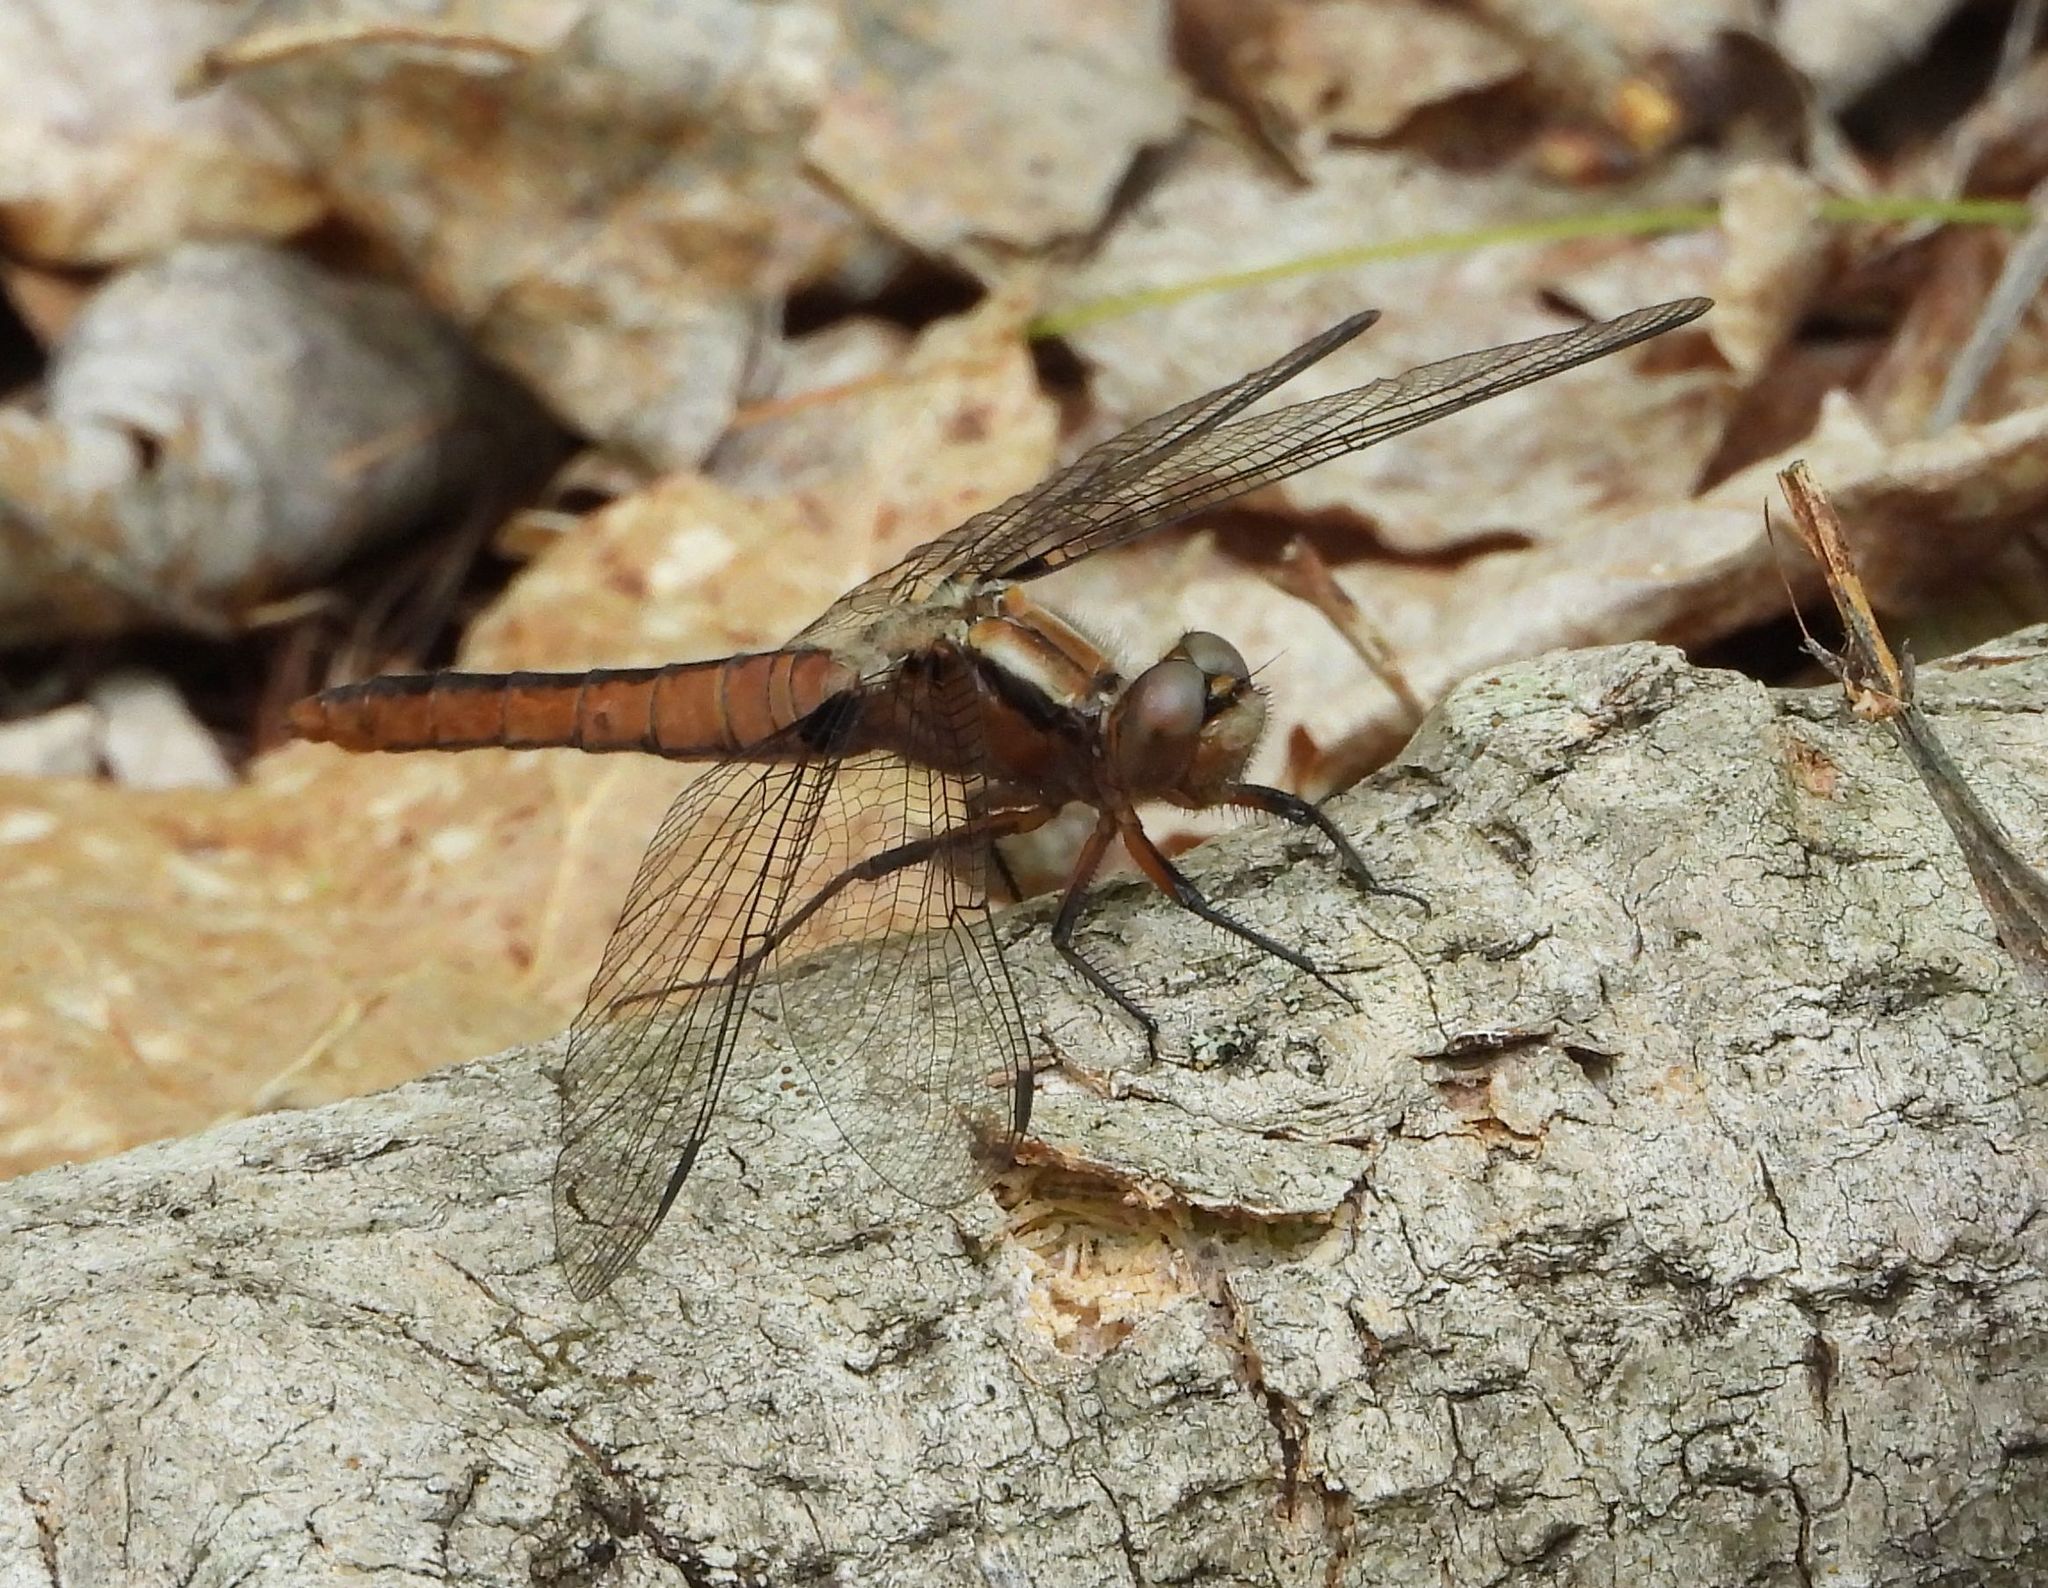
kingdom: Animalia
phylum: Arthropoda
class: Insecta
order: Odonata
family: Libellulidae
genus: Ladona
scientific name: Ladona julia
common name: Chalk-fronted corporal
